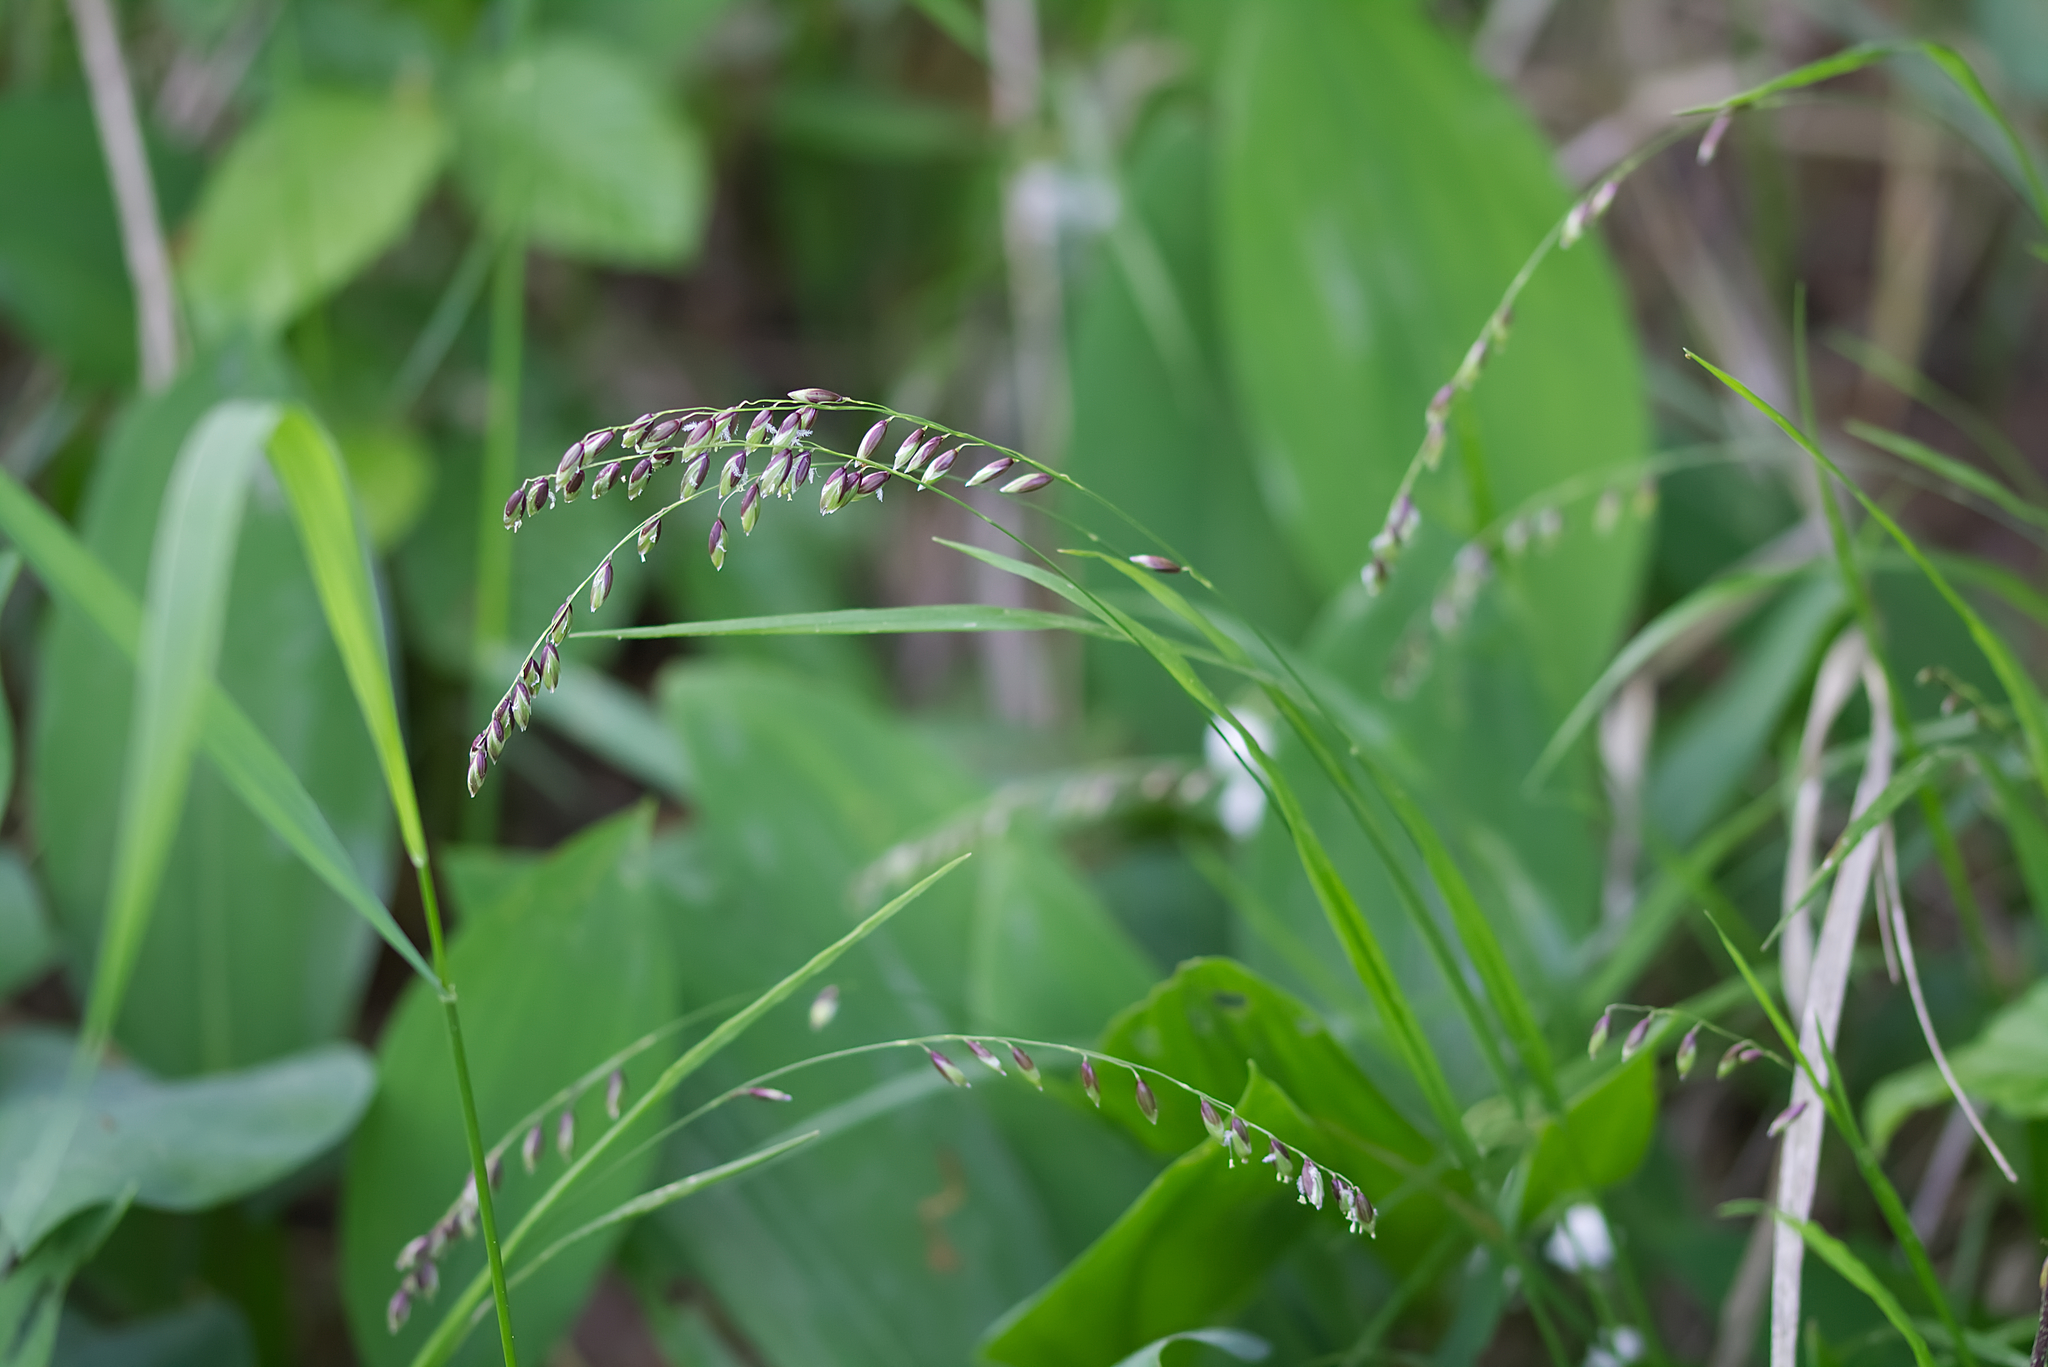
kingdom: Plantae
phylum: Tracheophyta
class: Liliopsida
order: Poales
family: Poaceae
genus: Melica
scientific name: Melica nutans
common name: Mountain melick
